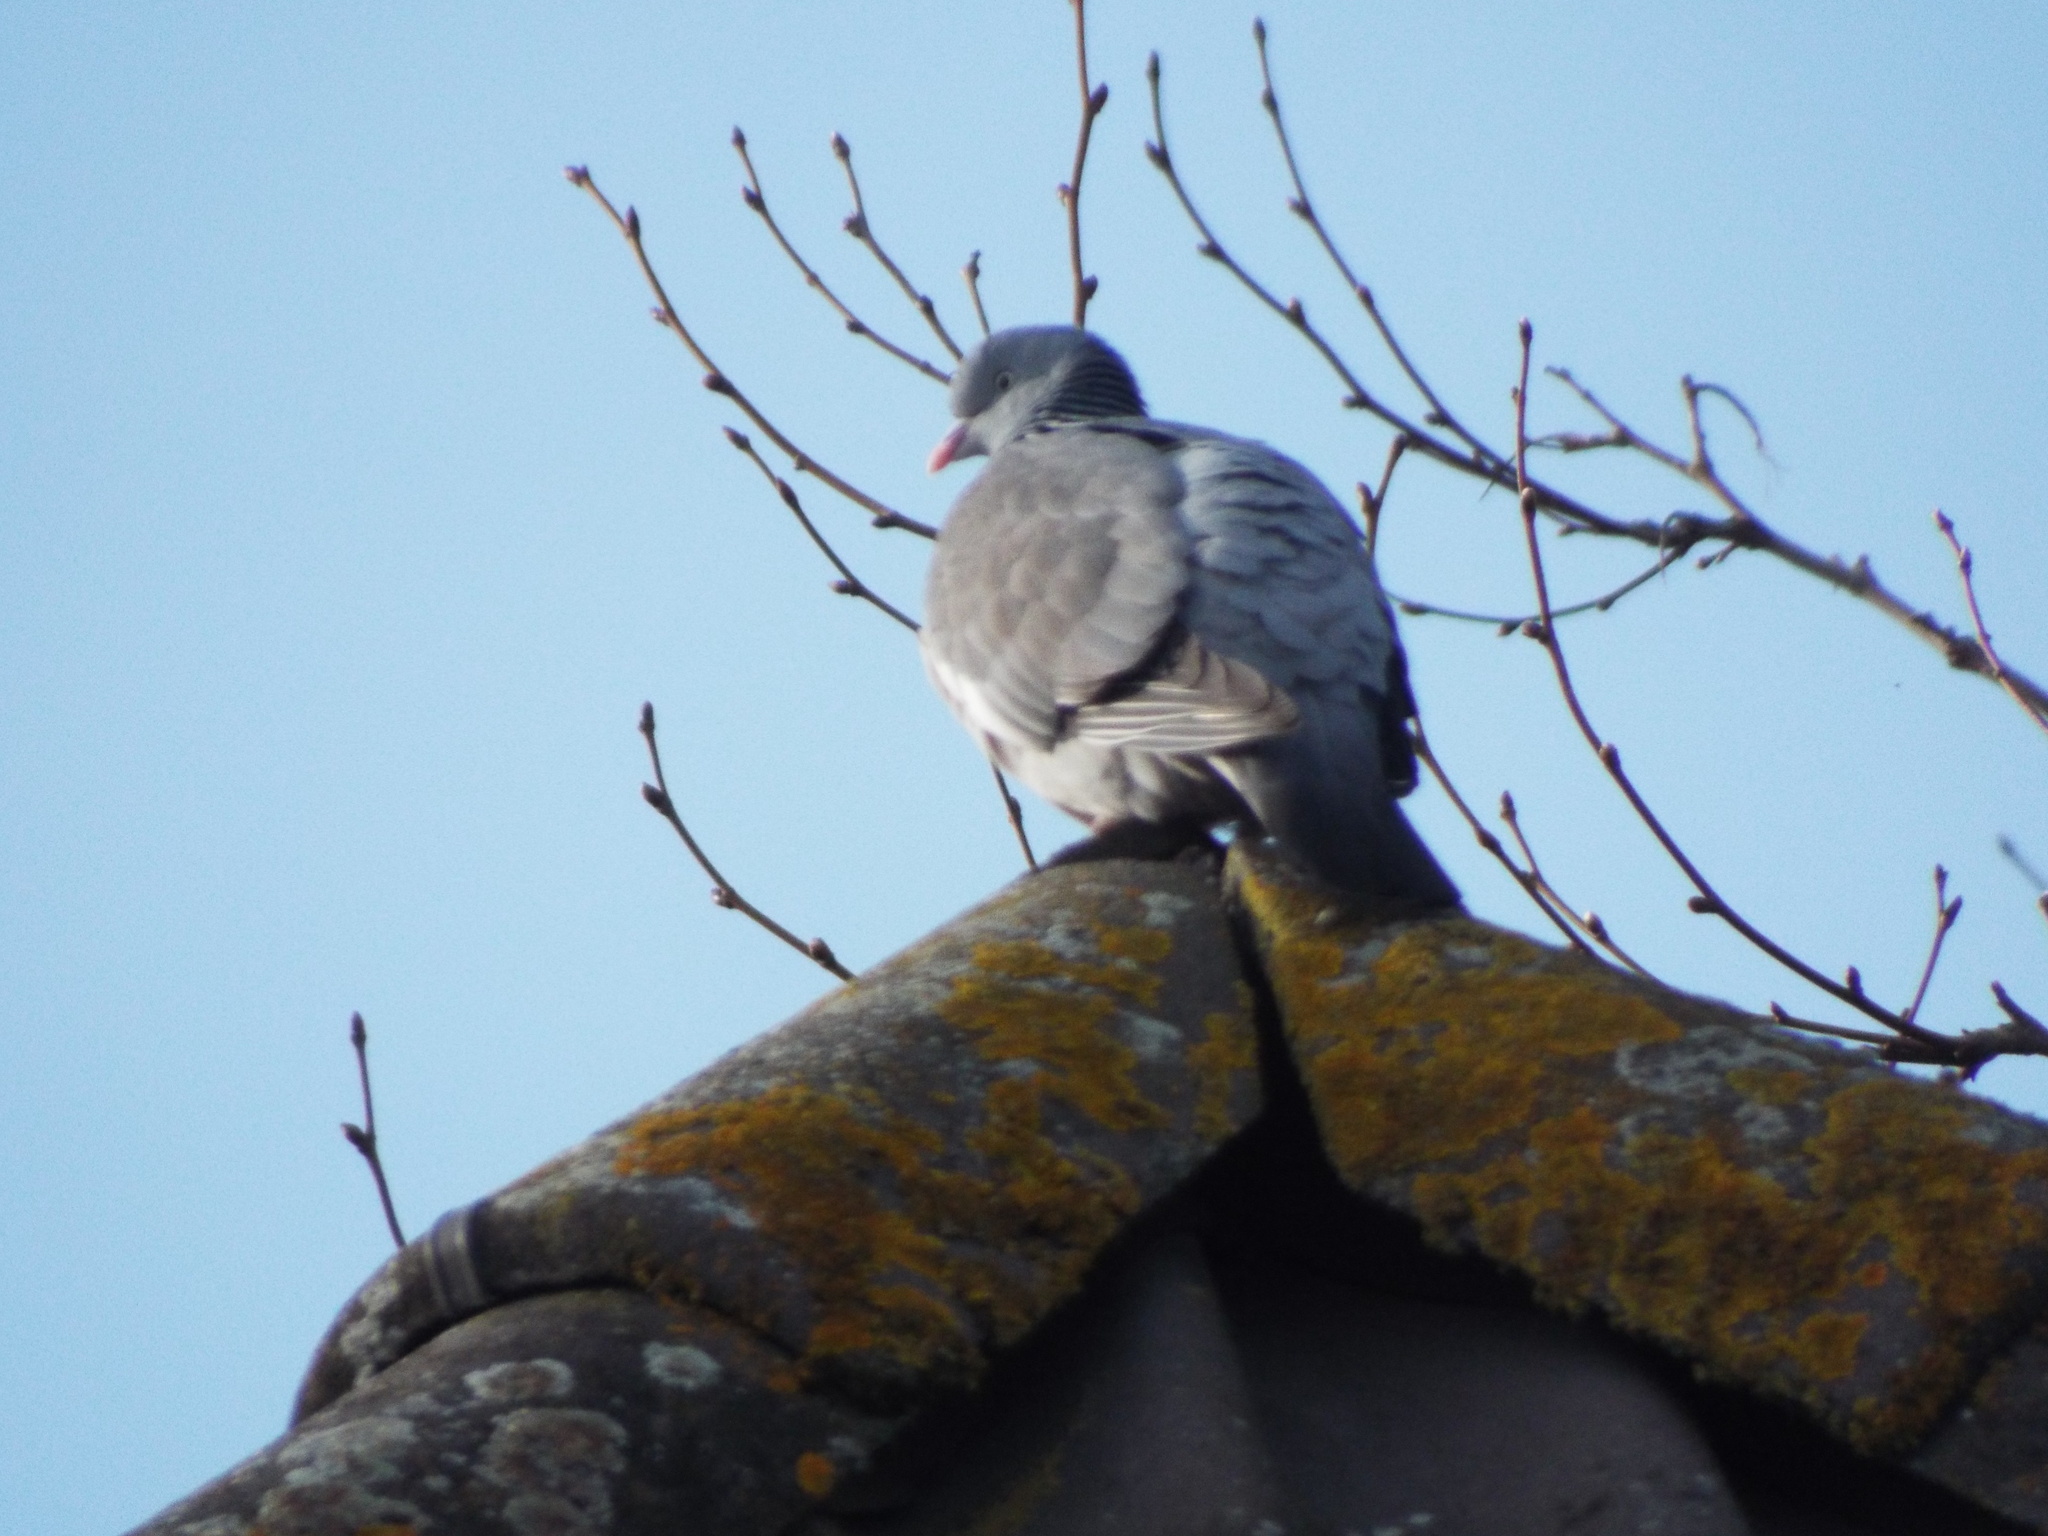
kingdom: Animalia
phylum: Chordata
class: Aves
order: Columbiformes
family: Columbidae
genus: Columba
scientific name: Columba palumbus
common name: Common wood pigeon
